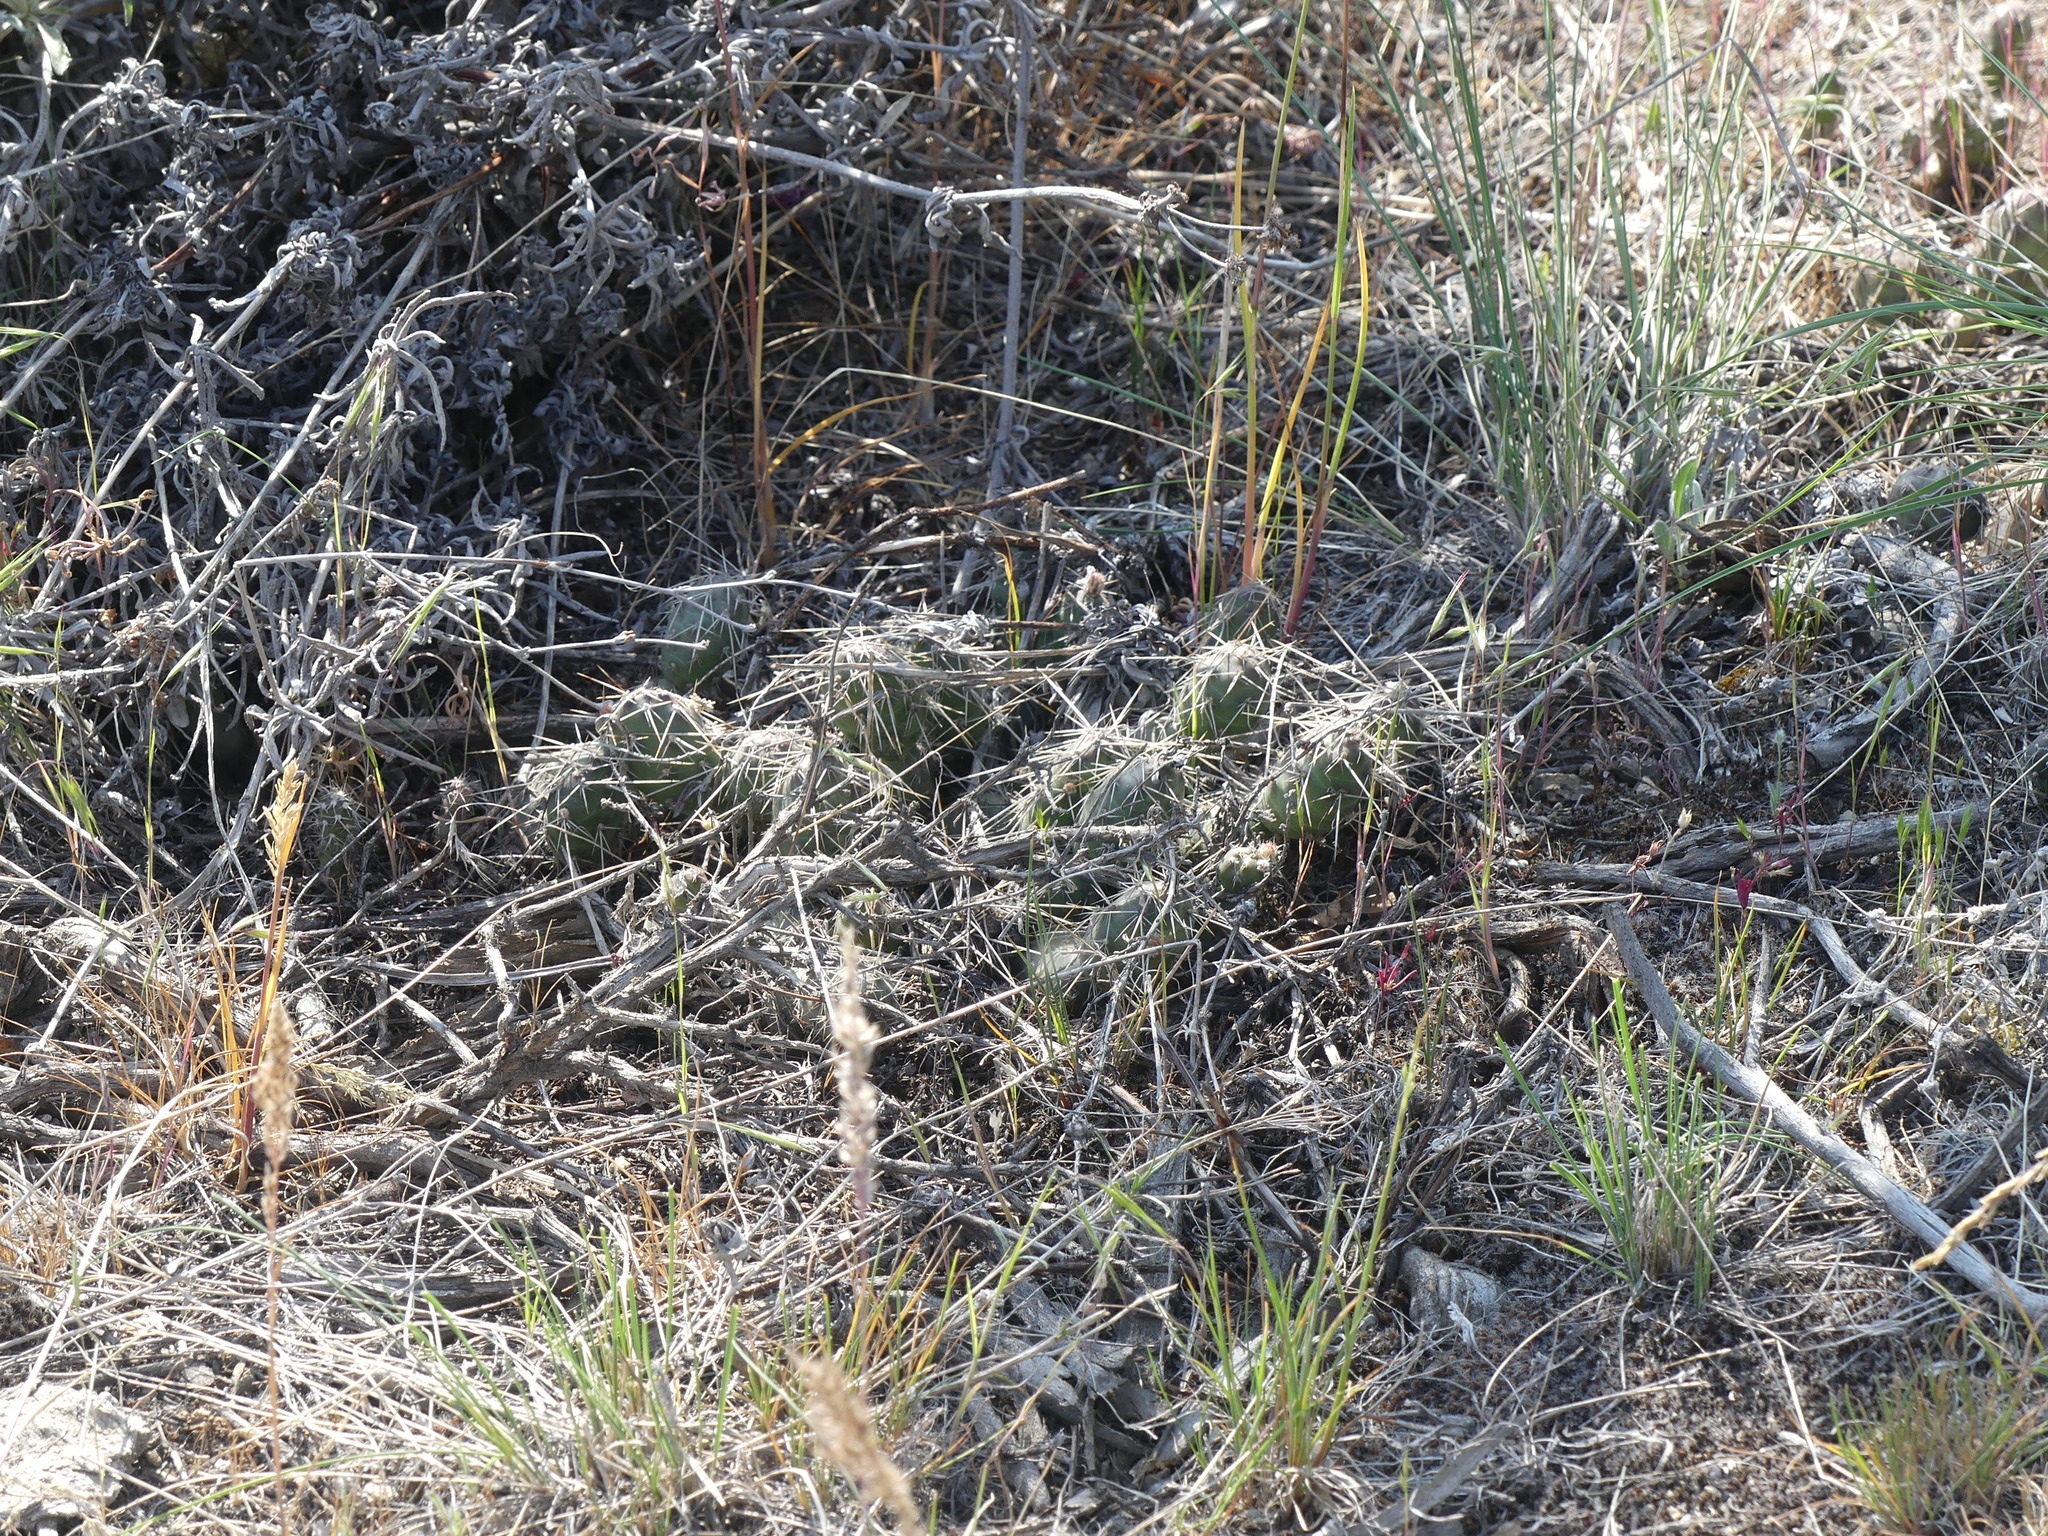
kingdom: Plantae
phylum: Tracheophyta
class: Magnoliopsida
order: Caryophyllales
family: Cactaceae
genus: Opuntia
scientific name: Opuntia fragilis
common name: Brittle cactus
